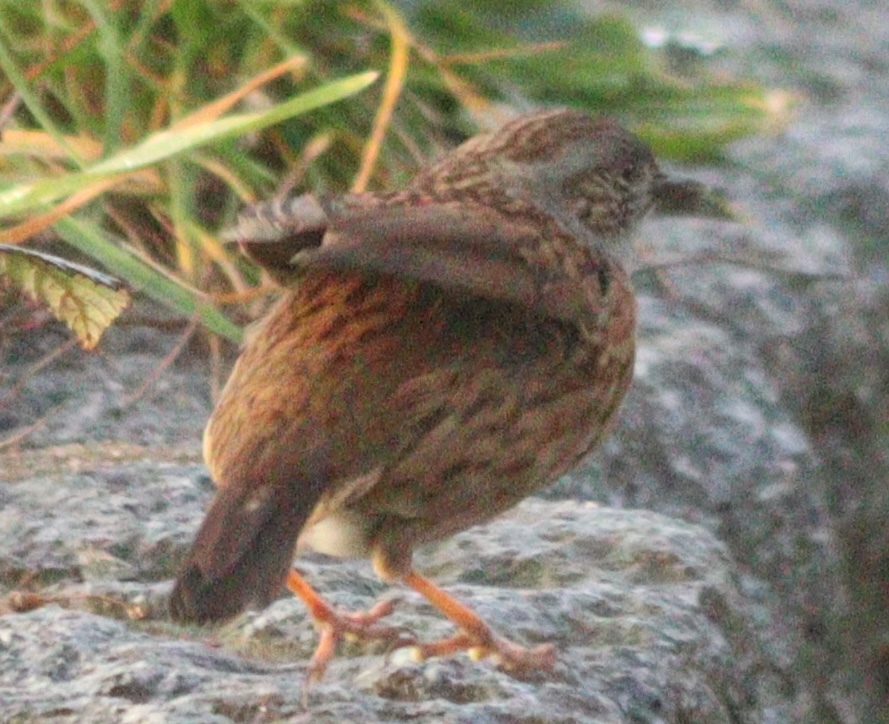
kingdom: Animalia
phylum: Chordata
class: Aves
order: Passeriformes
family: Prunellidae
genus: Prunella
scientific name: Prunella modularis
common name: Dunnock
